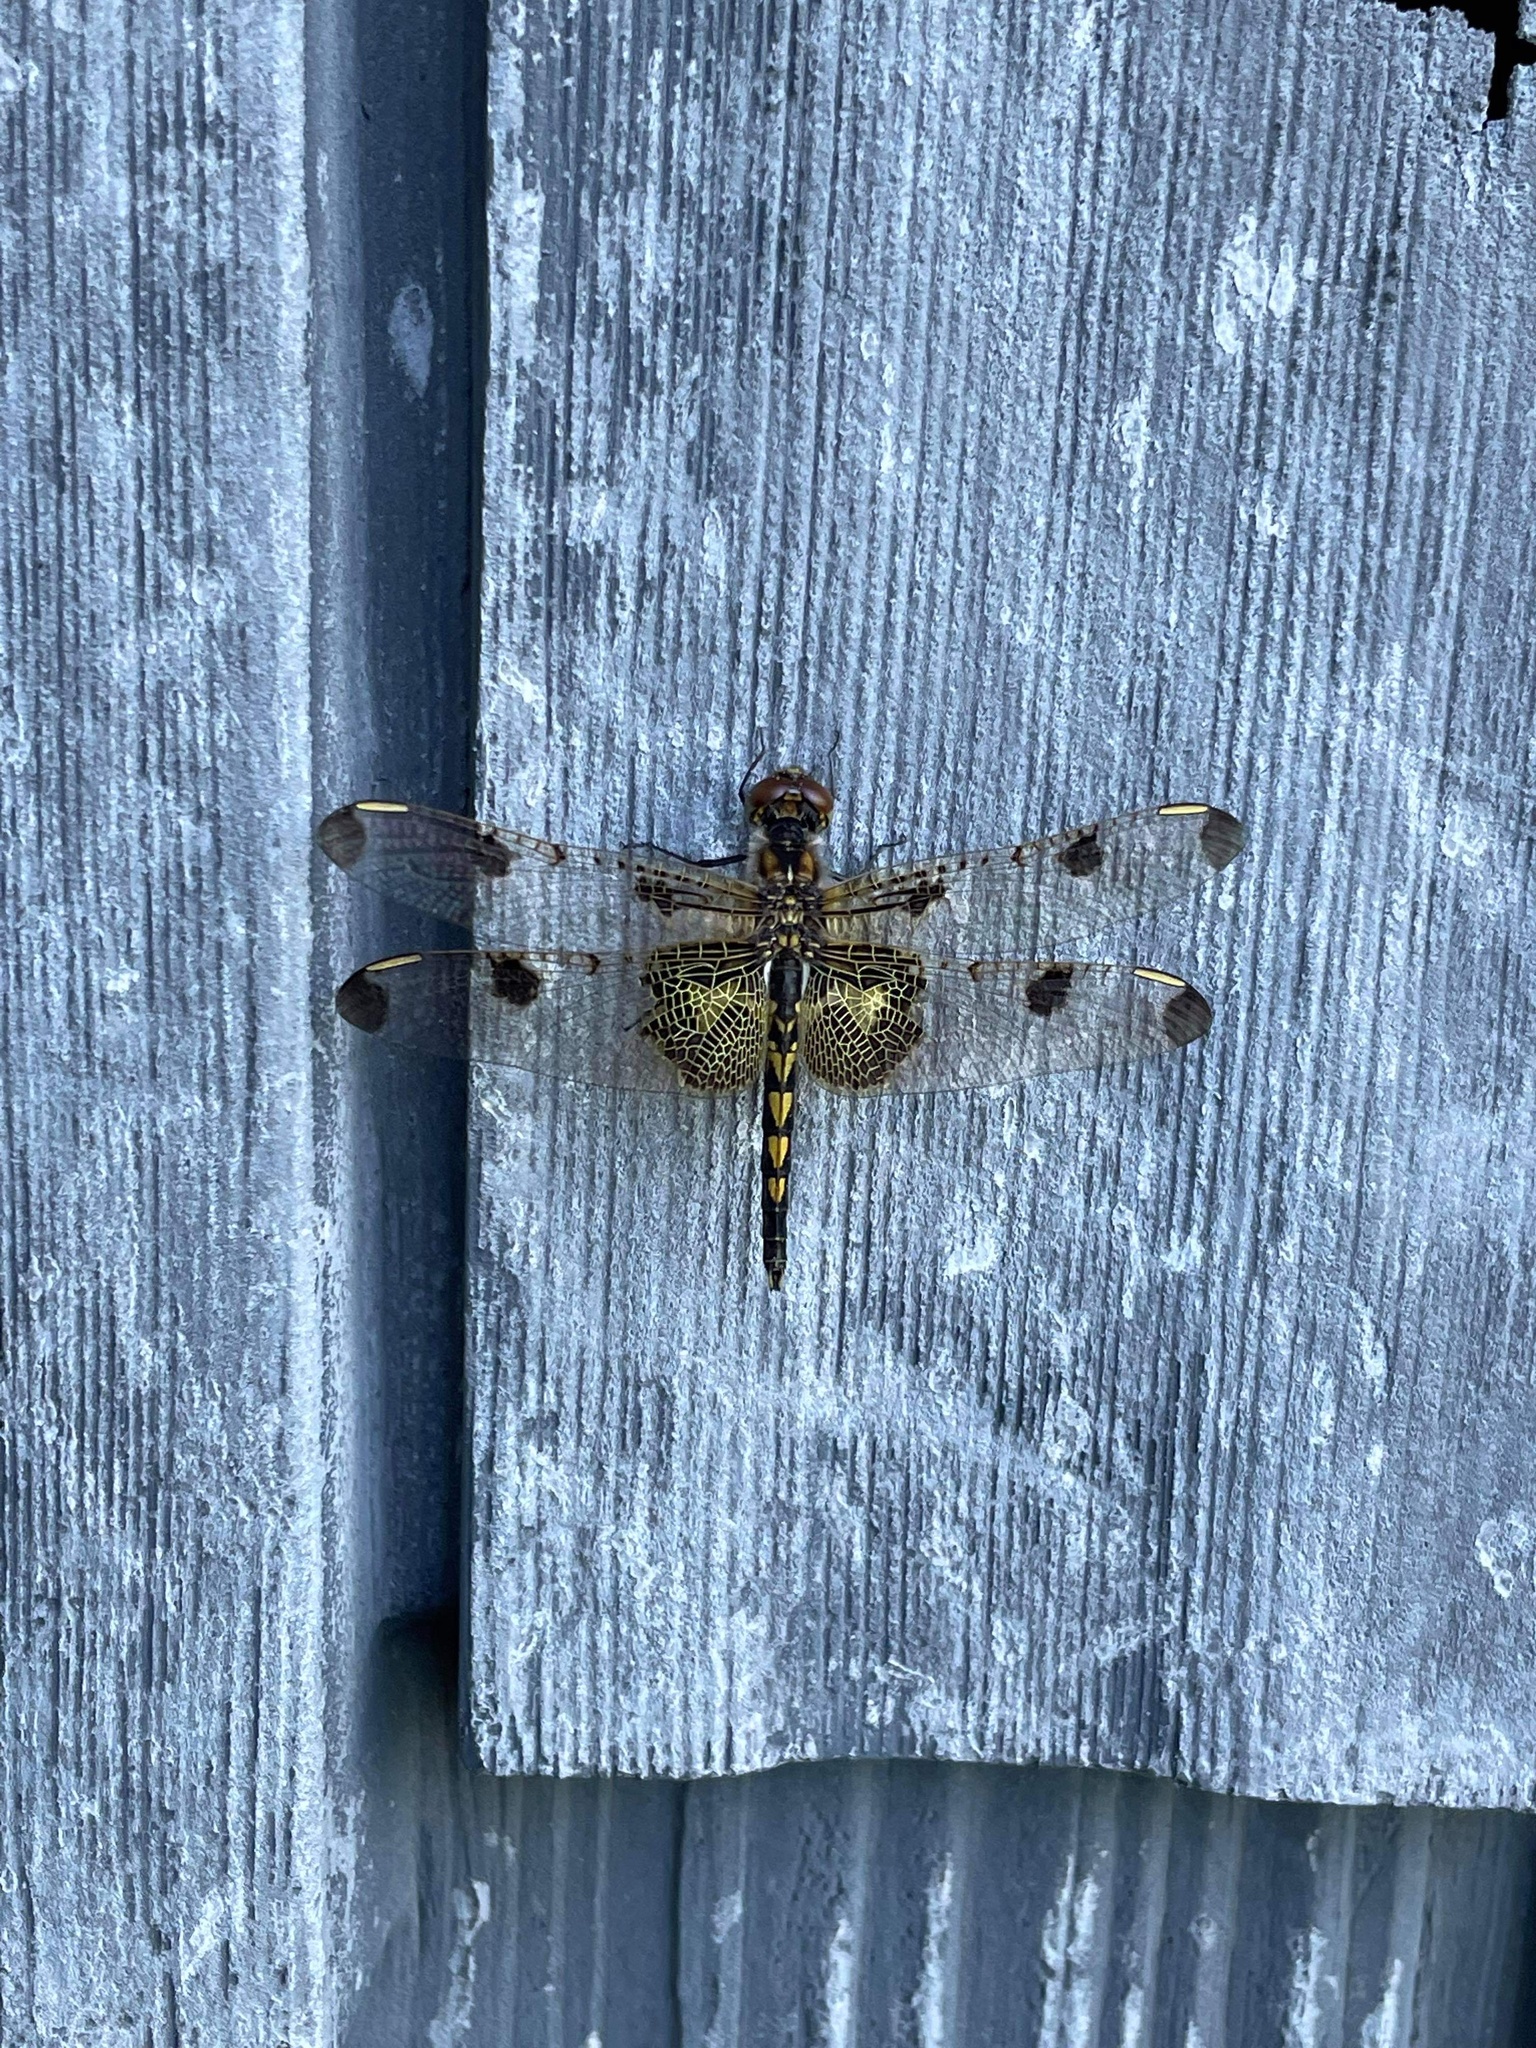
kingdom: Animalia
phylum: Arthropoda
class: Insecta
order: Odonata
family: Libellulidae
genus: Celithemis
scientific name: Celithemis elisa
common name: Calico pennant
